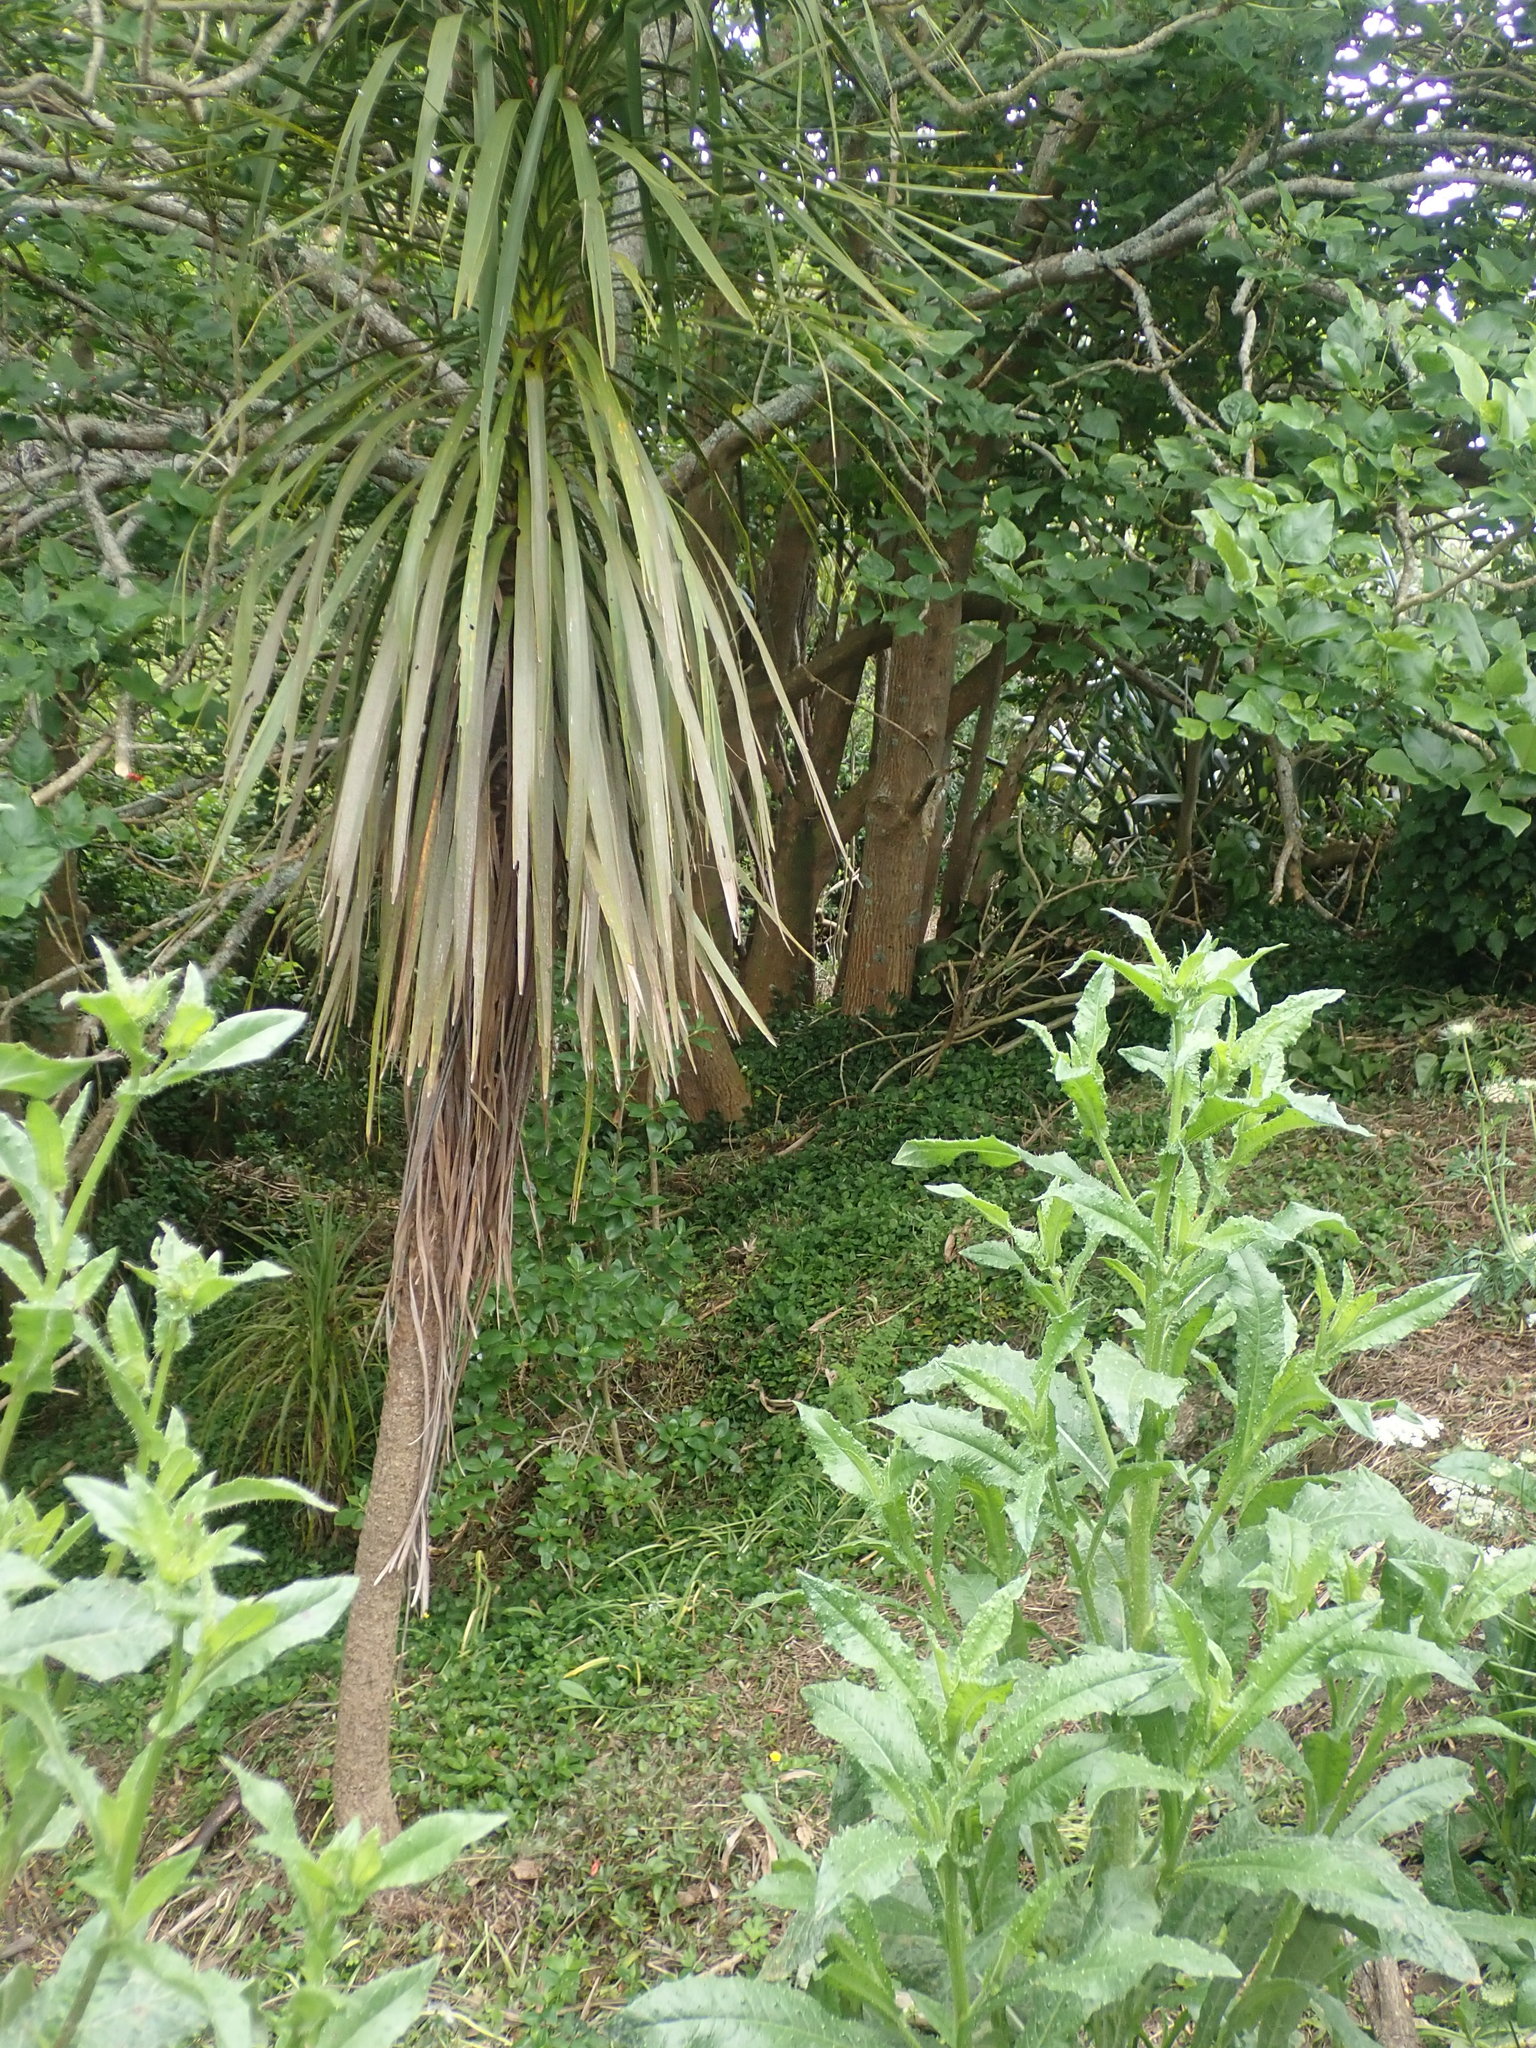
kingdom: Plantae
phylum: Tracheophyta
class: Liliopsida
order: Asparagales
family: Asparagaceae
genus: Cordyline
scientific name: Cordyline australis
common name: Cabbage-palm
